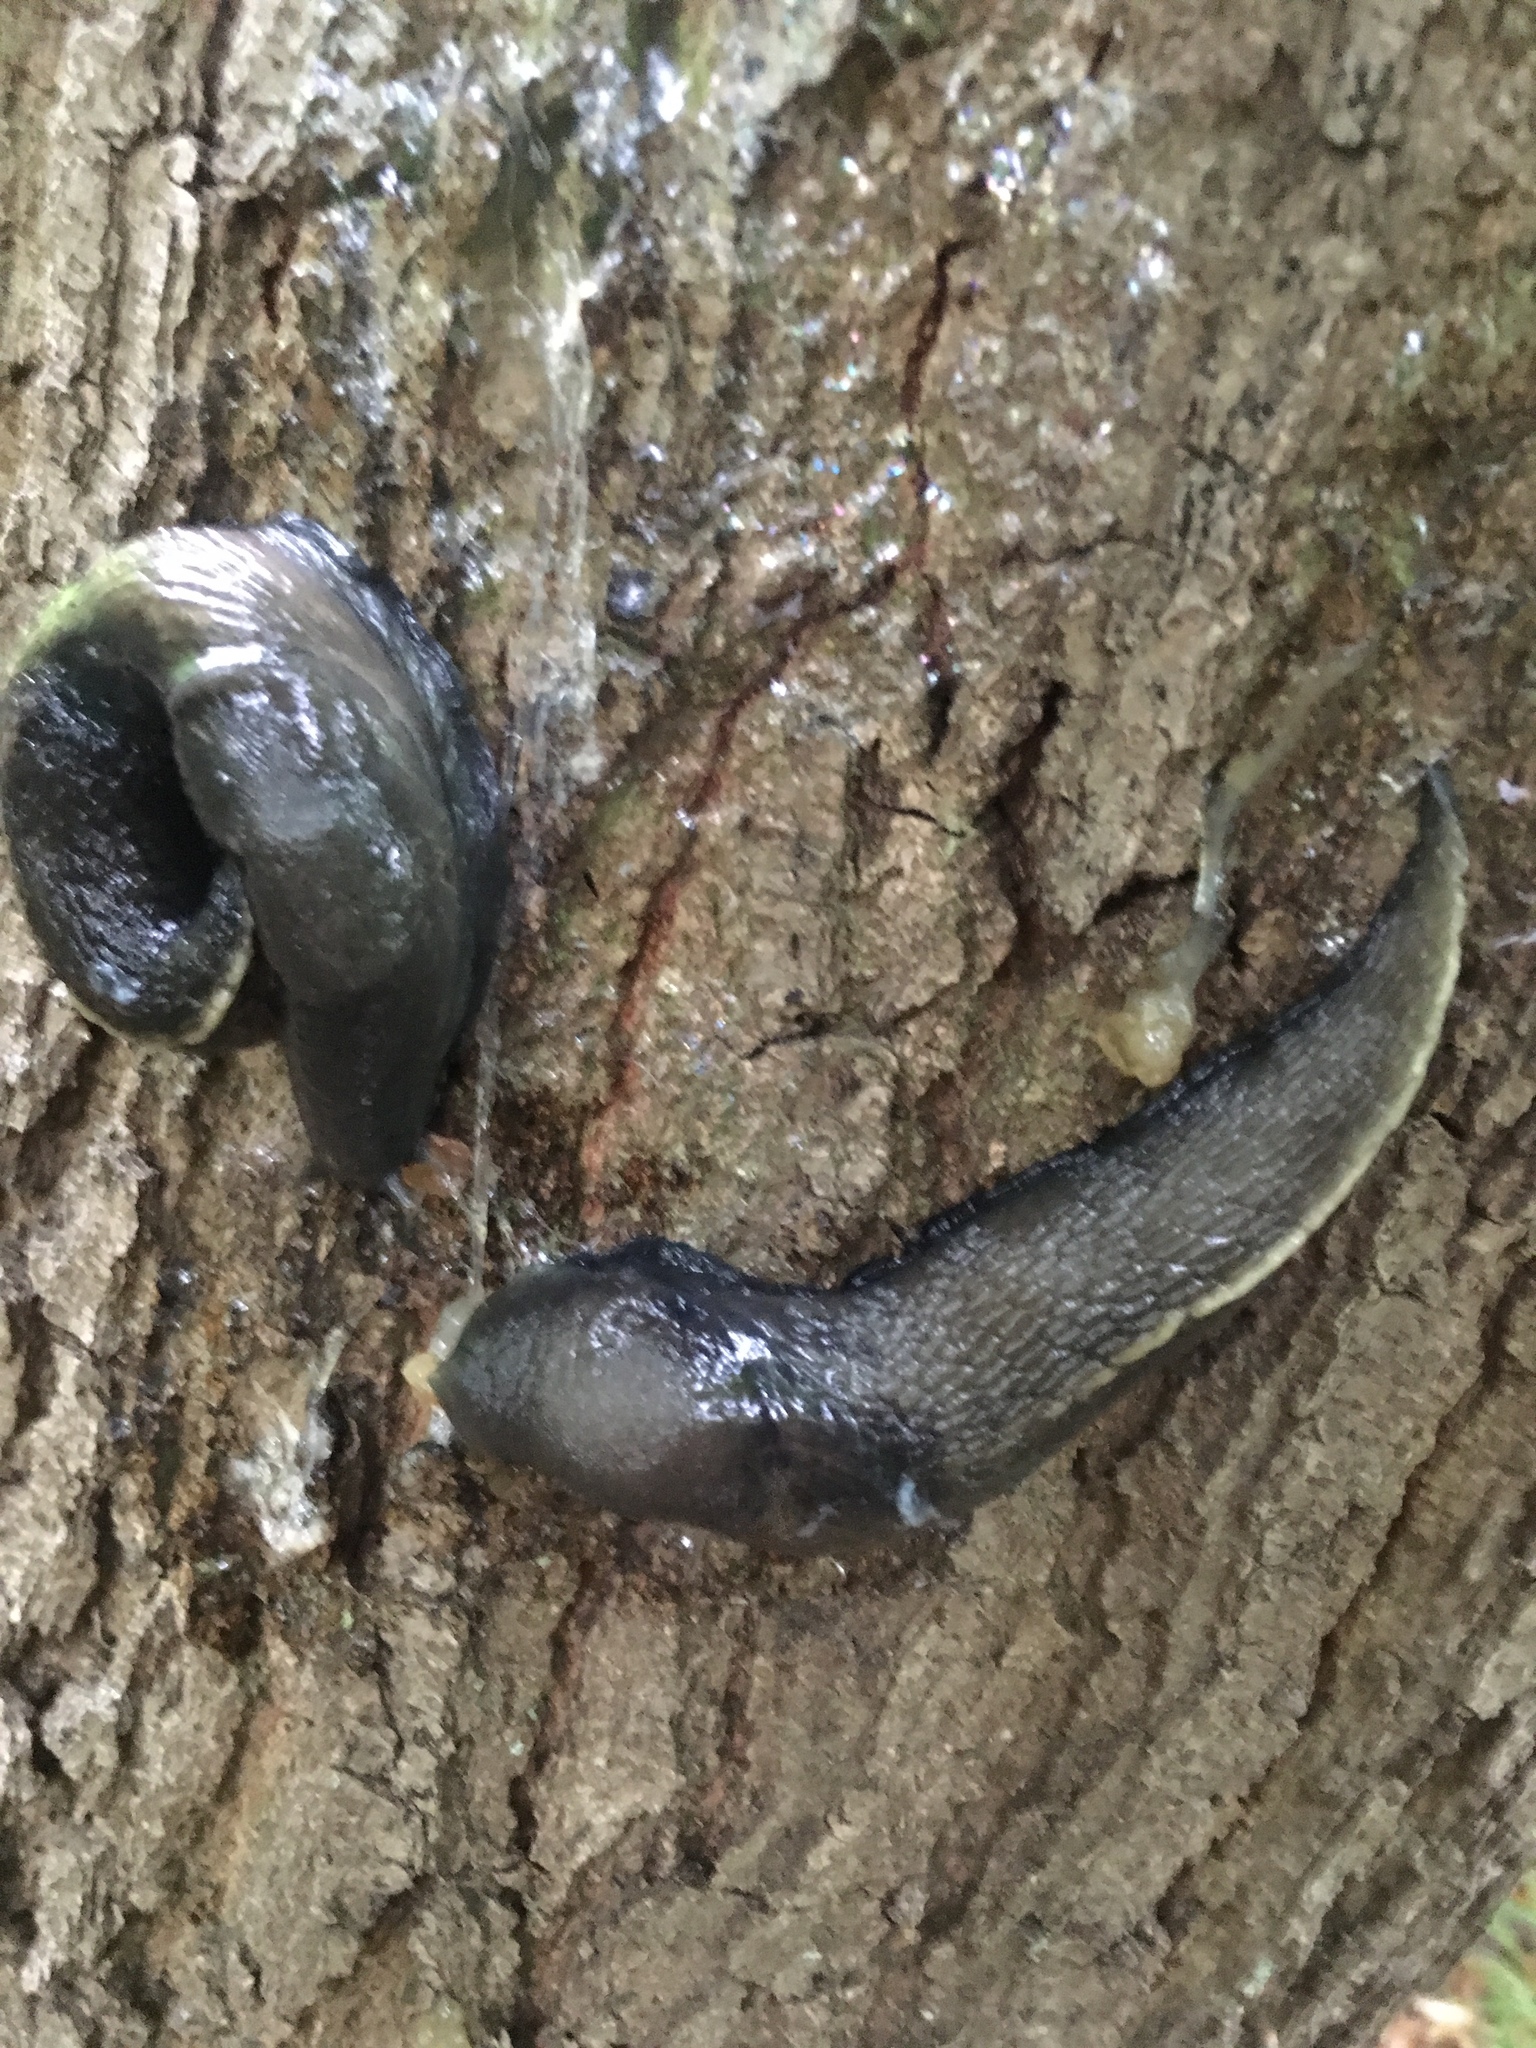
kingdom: Animalia
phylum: Mollusca
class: Gastropoda
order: Stylommatophora
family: Limacidae
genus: Limax
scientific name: Limax cinereoniger
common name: Ash-black slug
